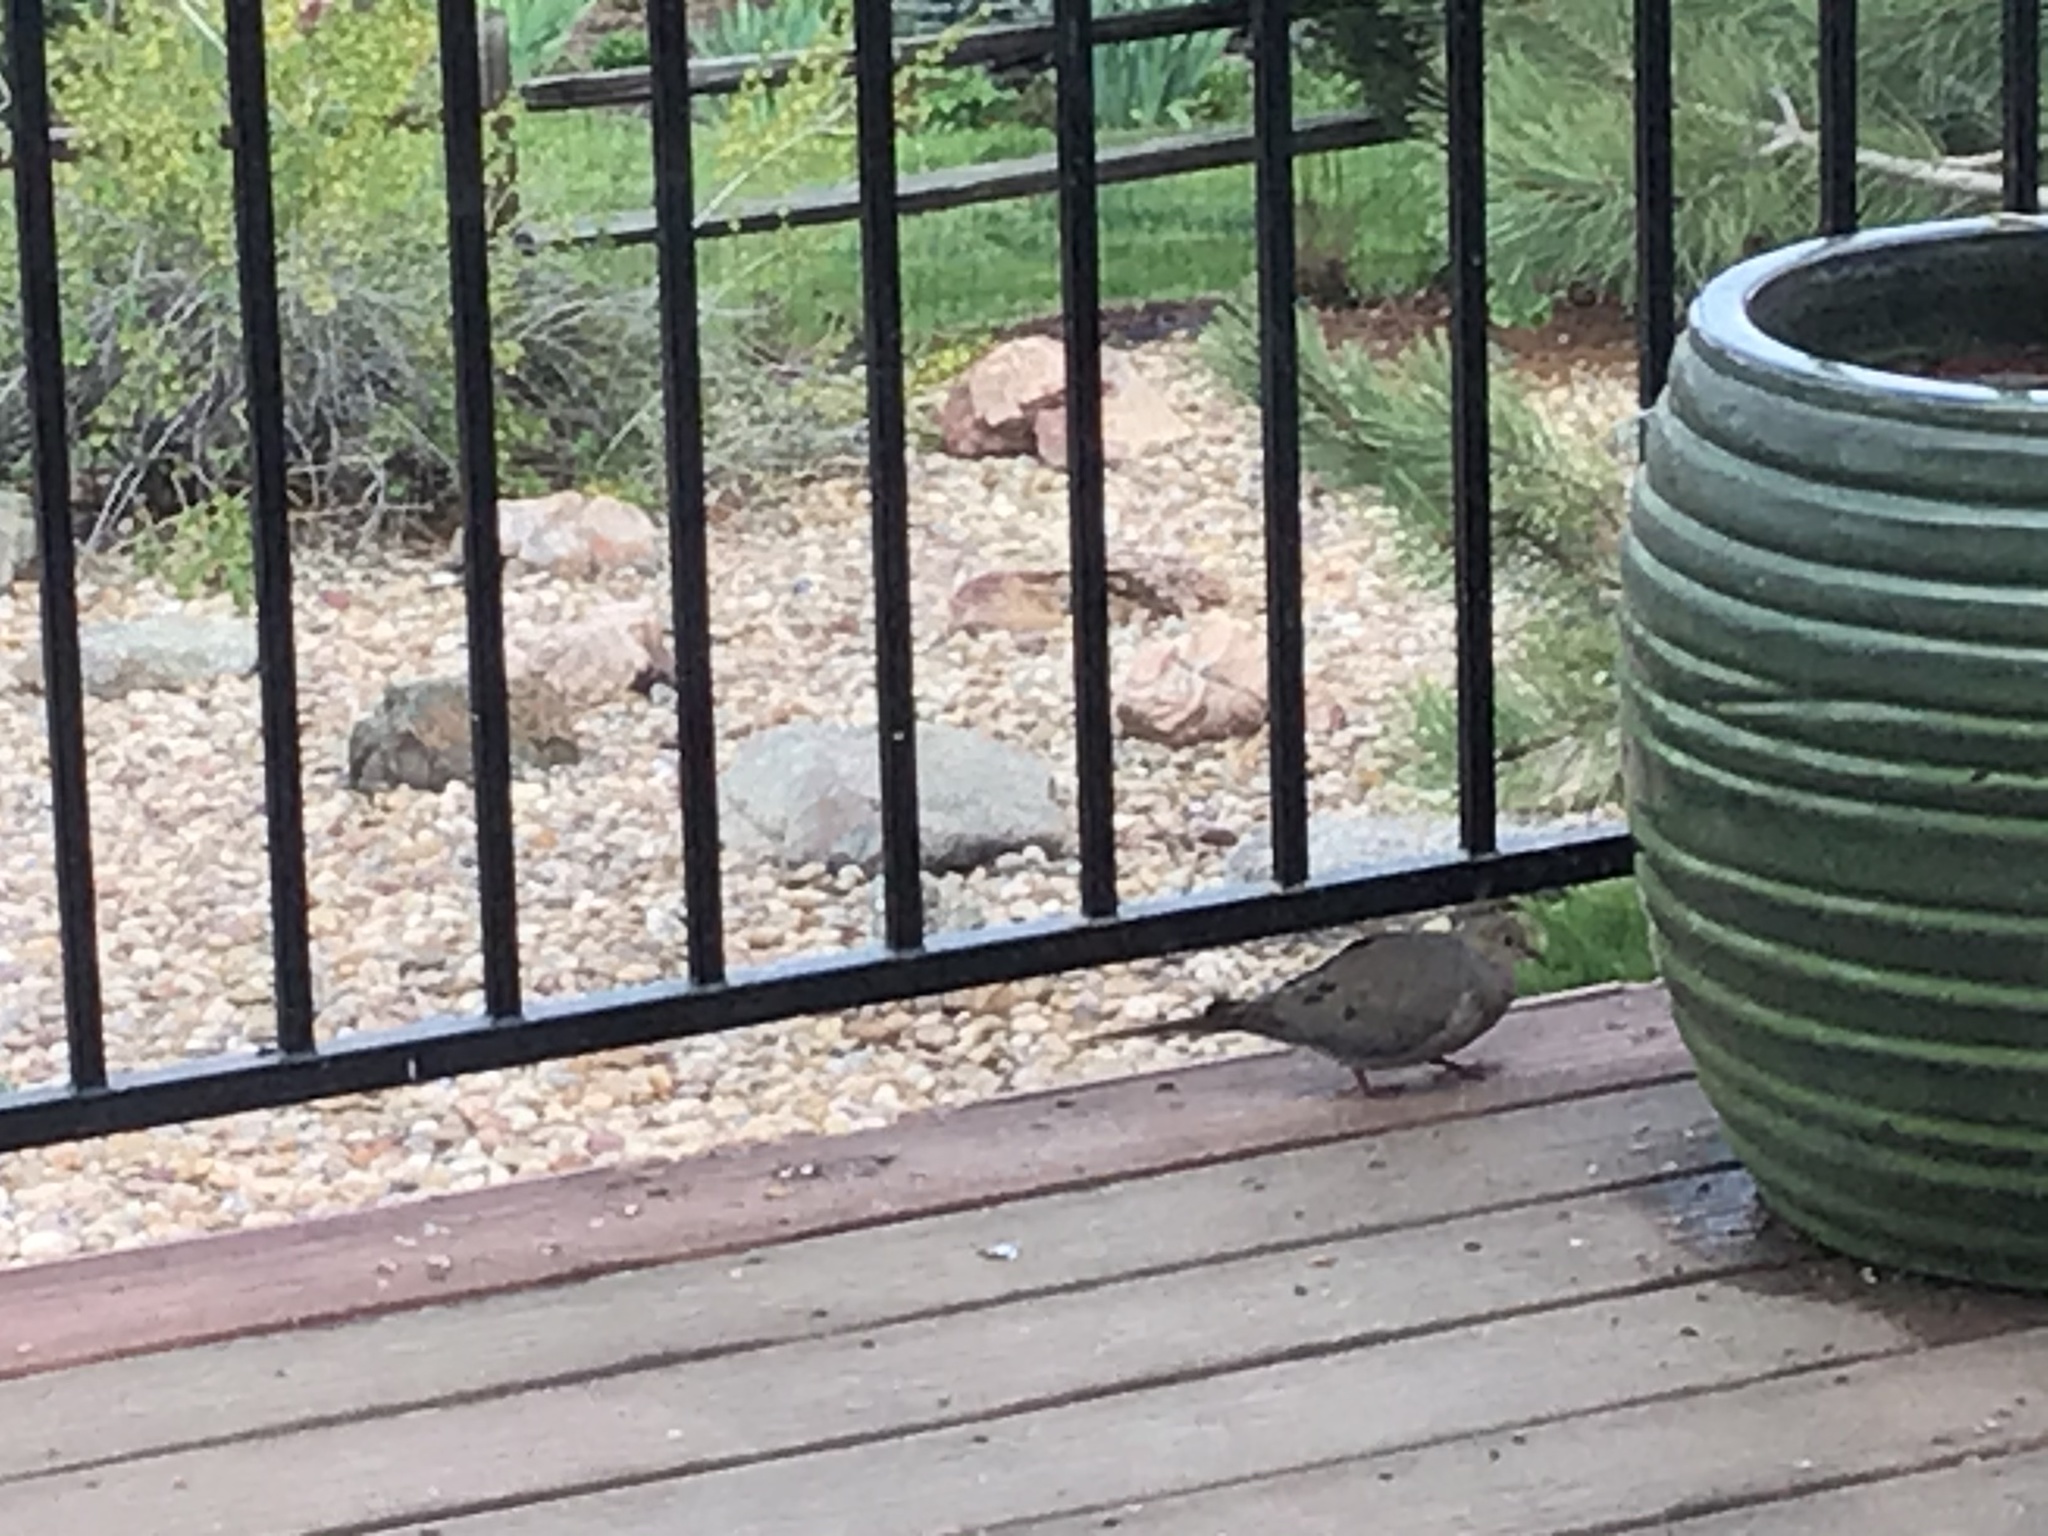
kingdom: Animalia
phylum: Chordata
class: Aves
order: Columbiformes
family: Columbidae
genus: Zenaida
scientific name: Zenaida macroura
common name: Mourning dove
